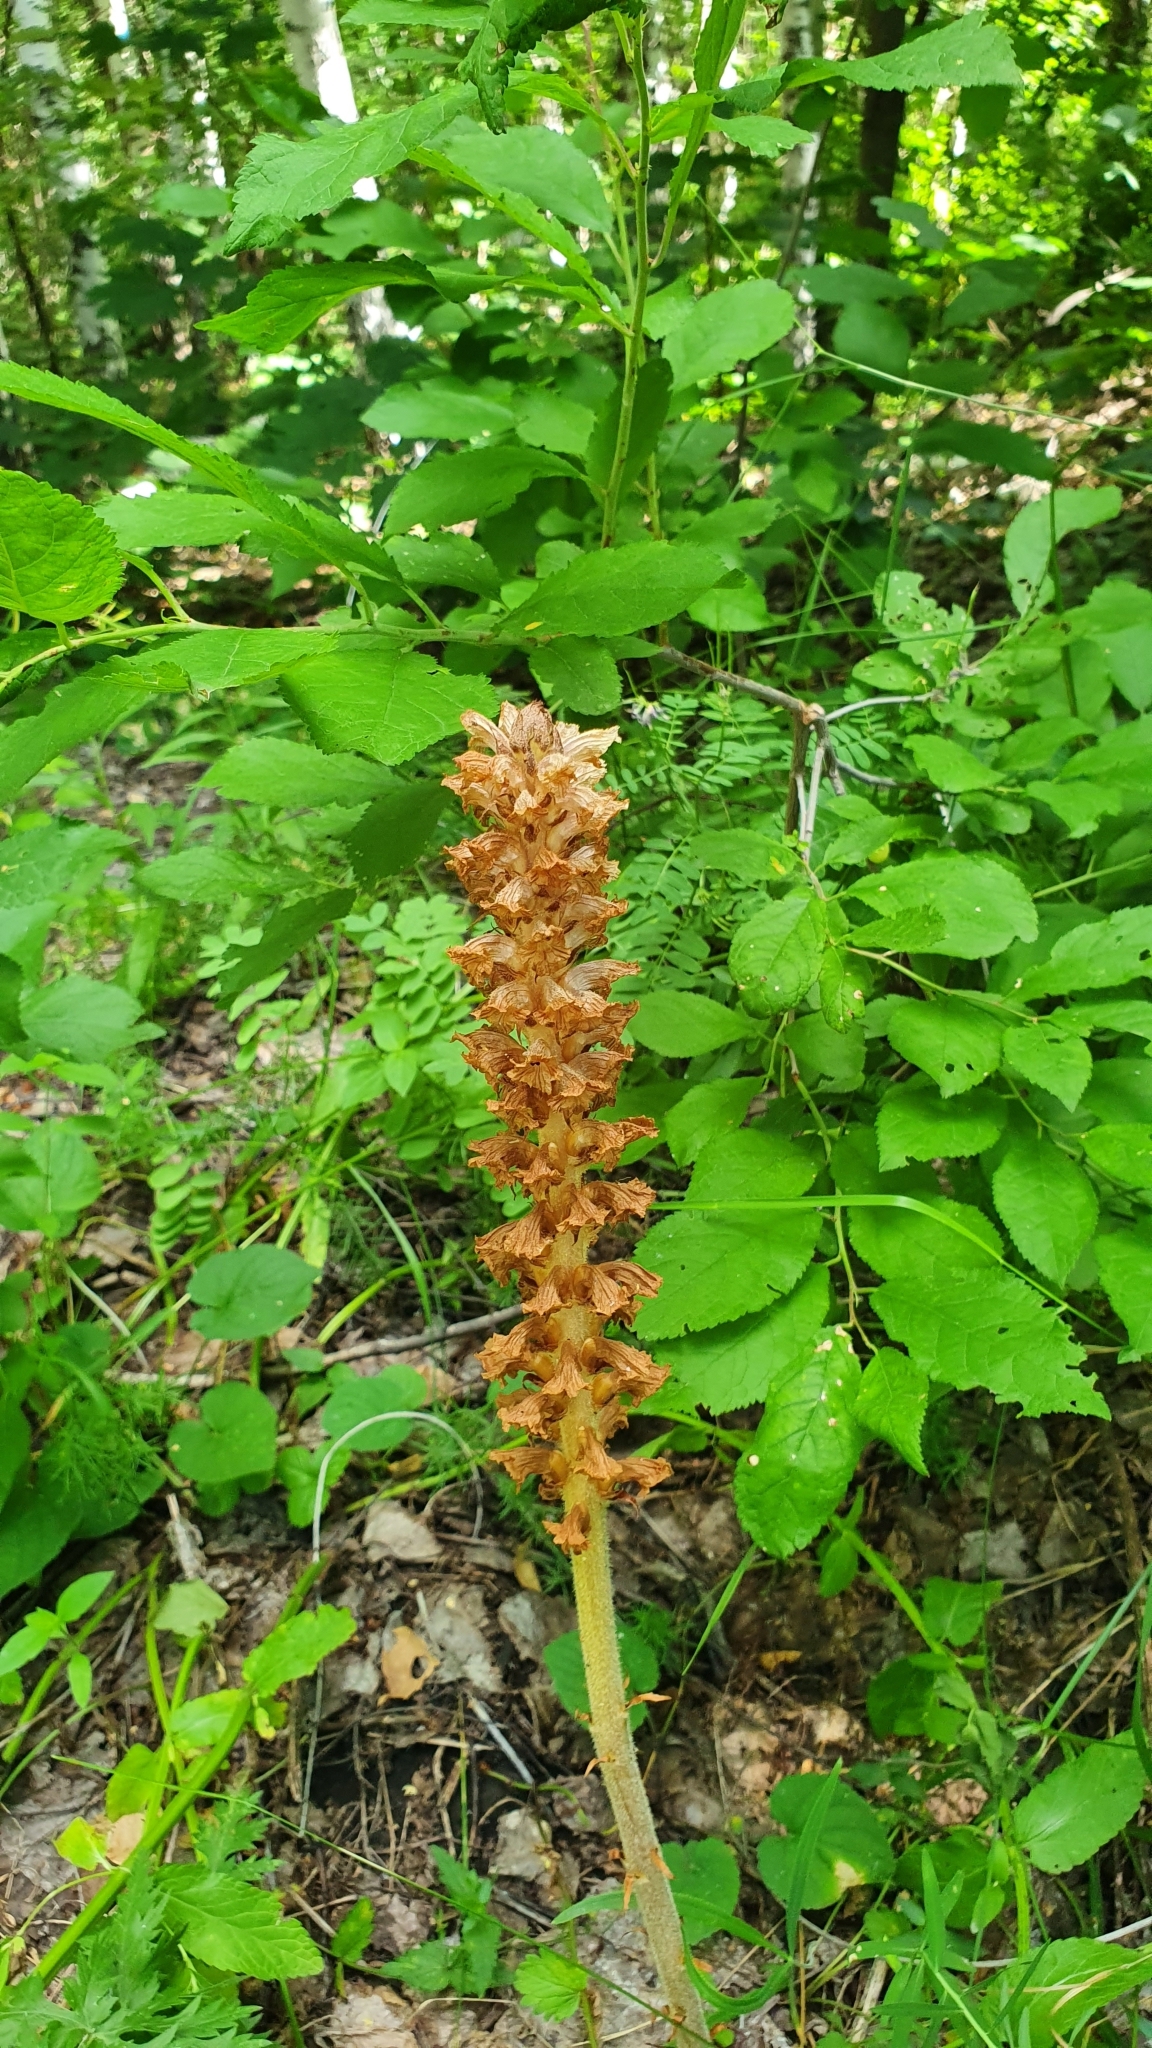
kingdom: Plantae
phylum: Tracheophyta
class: Magnoliopsida
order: Lamiales
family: Orobanchaceae
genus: Orobanche
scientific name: Orobanche alsatica
